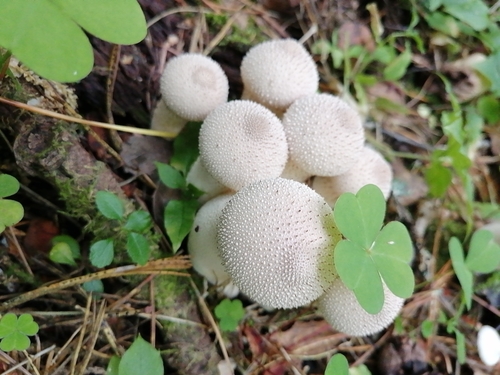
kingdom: Fungi
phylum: Basidiomycota
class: Agaricomycetes
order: Agaricales
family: Lycoperdaceae
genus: Lycoperdon
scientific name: Lycoperdon perlatum
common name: Common puffball
